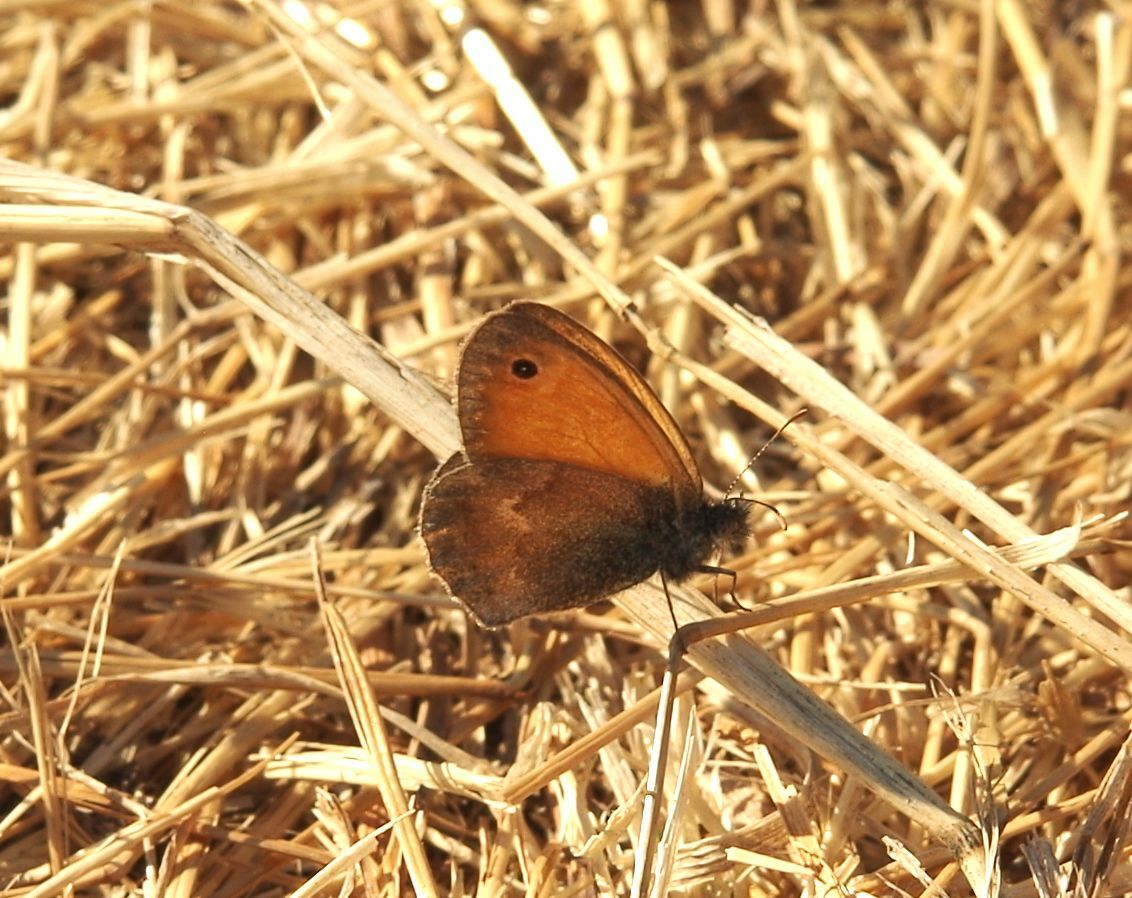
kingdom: Animalia
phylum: Arthropoda
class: Insecta
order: Lepidoptera
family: Nymphalidae
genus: Coenonympha
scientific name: Coenonympha pamphilus
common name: Small heath
